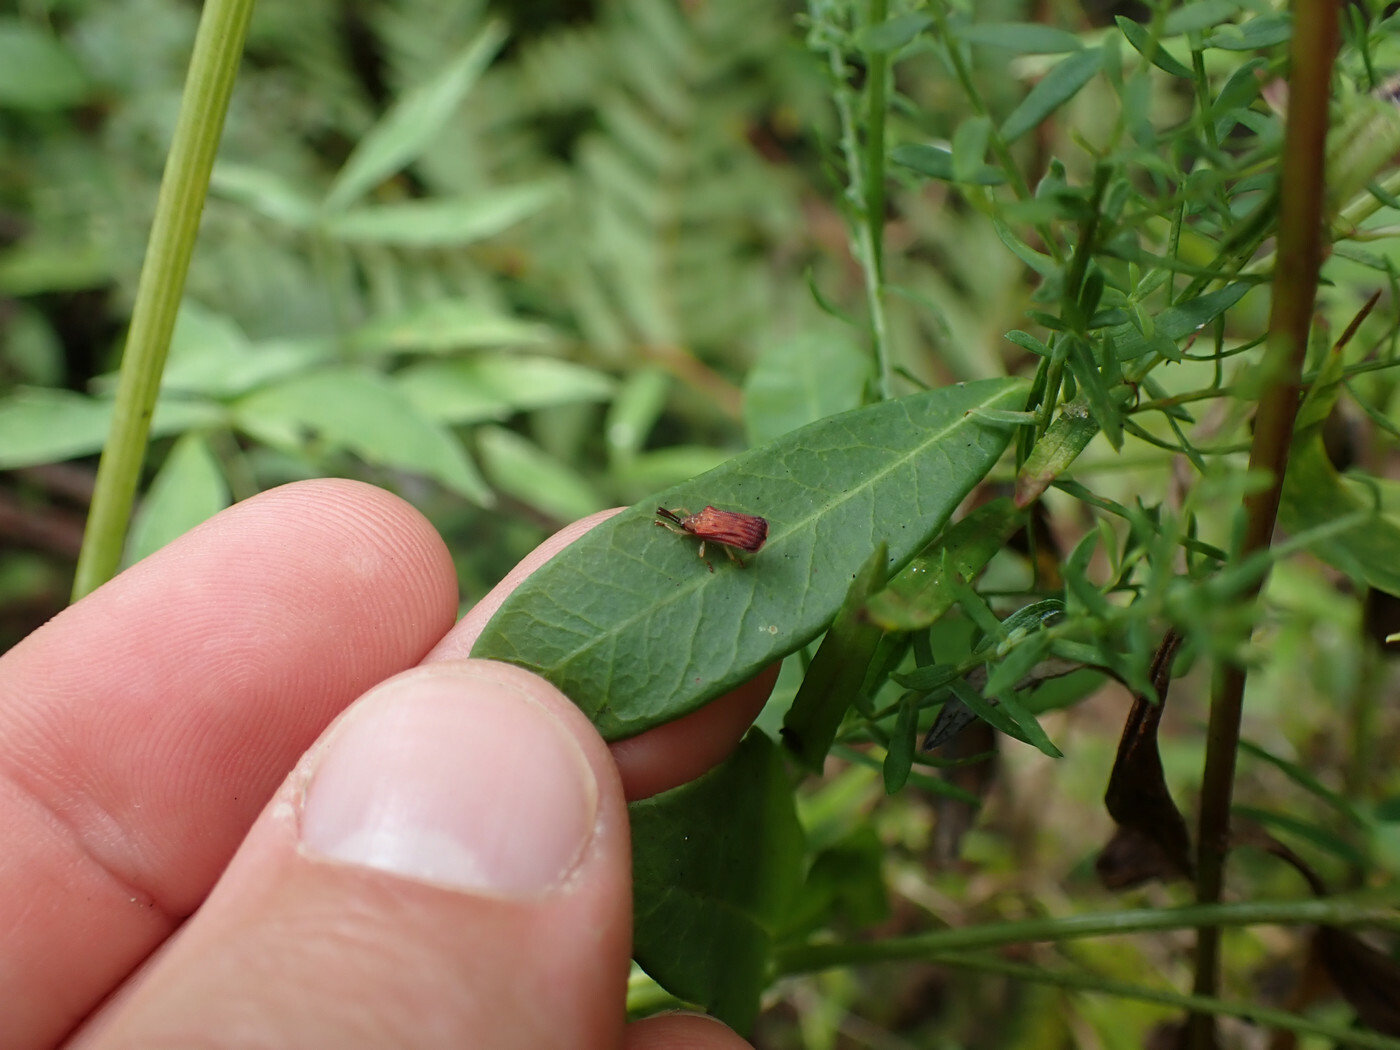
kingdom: Animalia
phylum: Arthropoda
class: Insecta
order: Coleoptera
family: Chrysomelidae
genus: Baliosus
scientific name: Baliosus nervosus
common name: Basswood leaf miner
